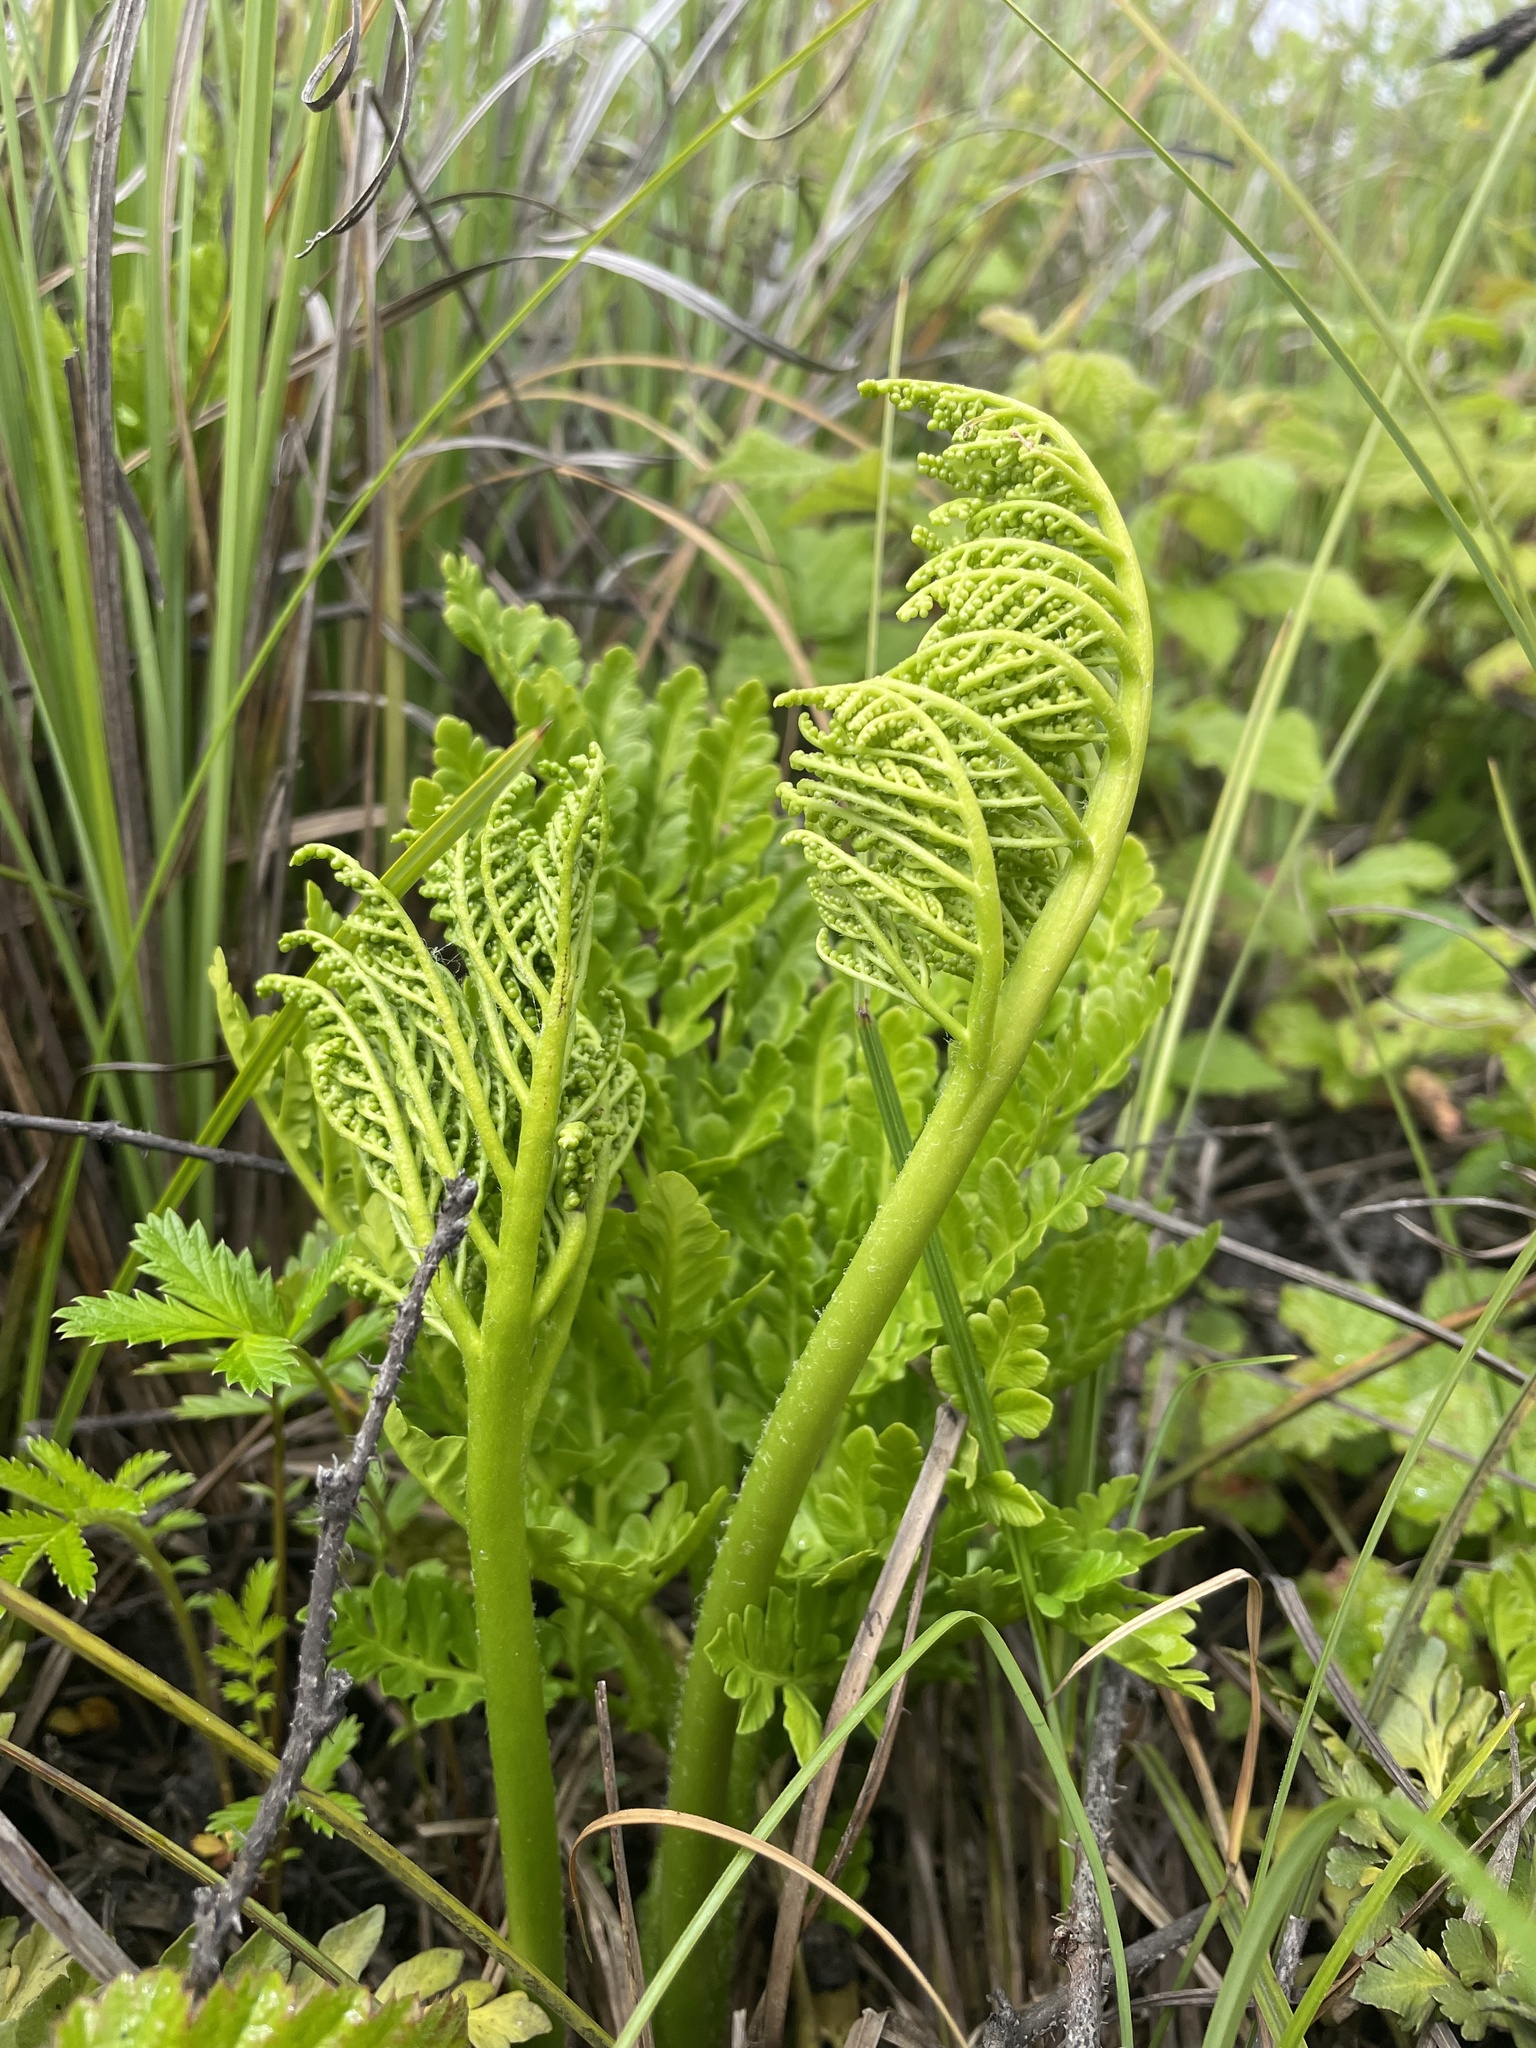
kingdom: Plantae
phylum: Tracheophyta
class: Polypodiopsida
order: Ophioglossales
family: Ophioglossaceae
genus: Sceptridium
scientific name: Sceptridium multifidum
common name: Leathery grape fern
